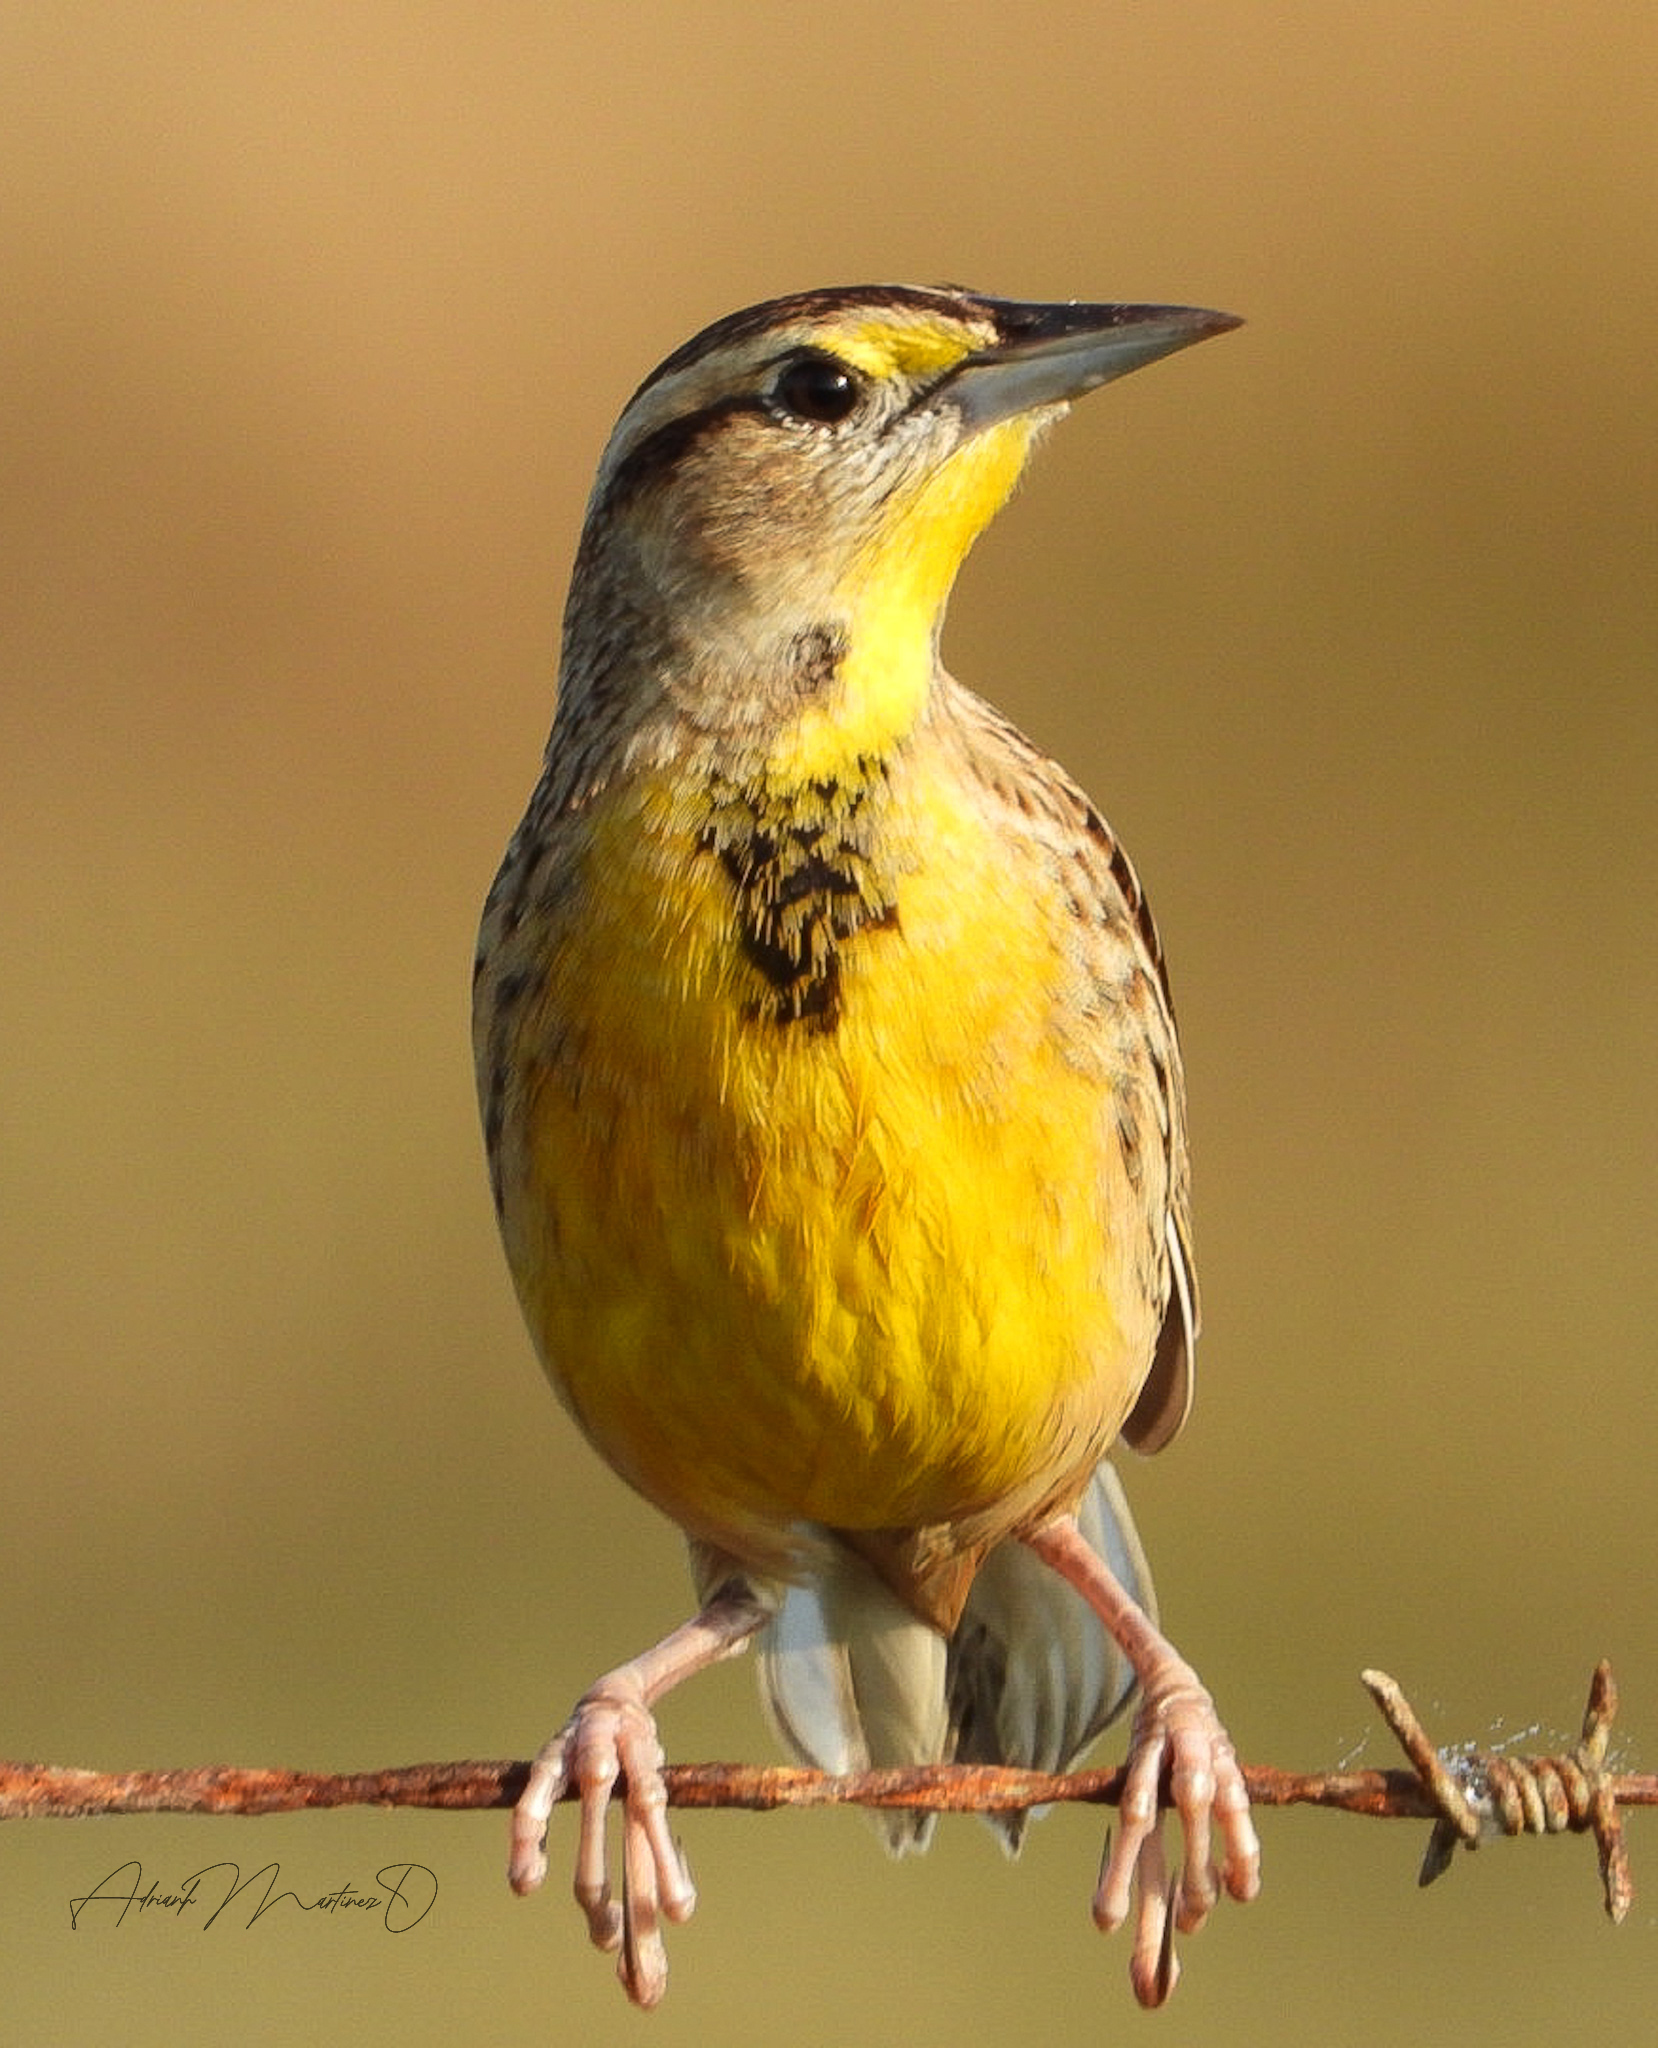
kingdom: Animalia
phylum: Chordata
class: Aves
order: Passeriformes
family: Icteridae
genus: Sturnella
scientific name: Sturnella magna
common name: Eastern meadowlark
